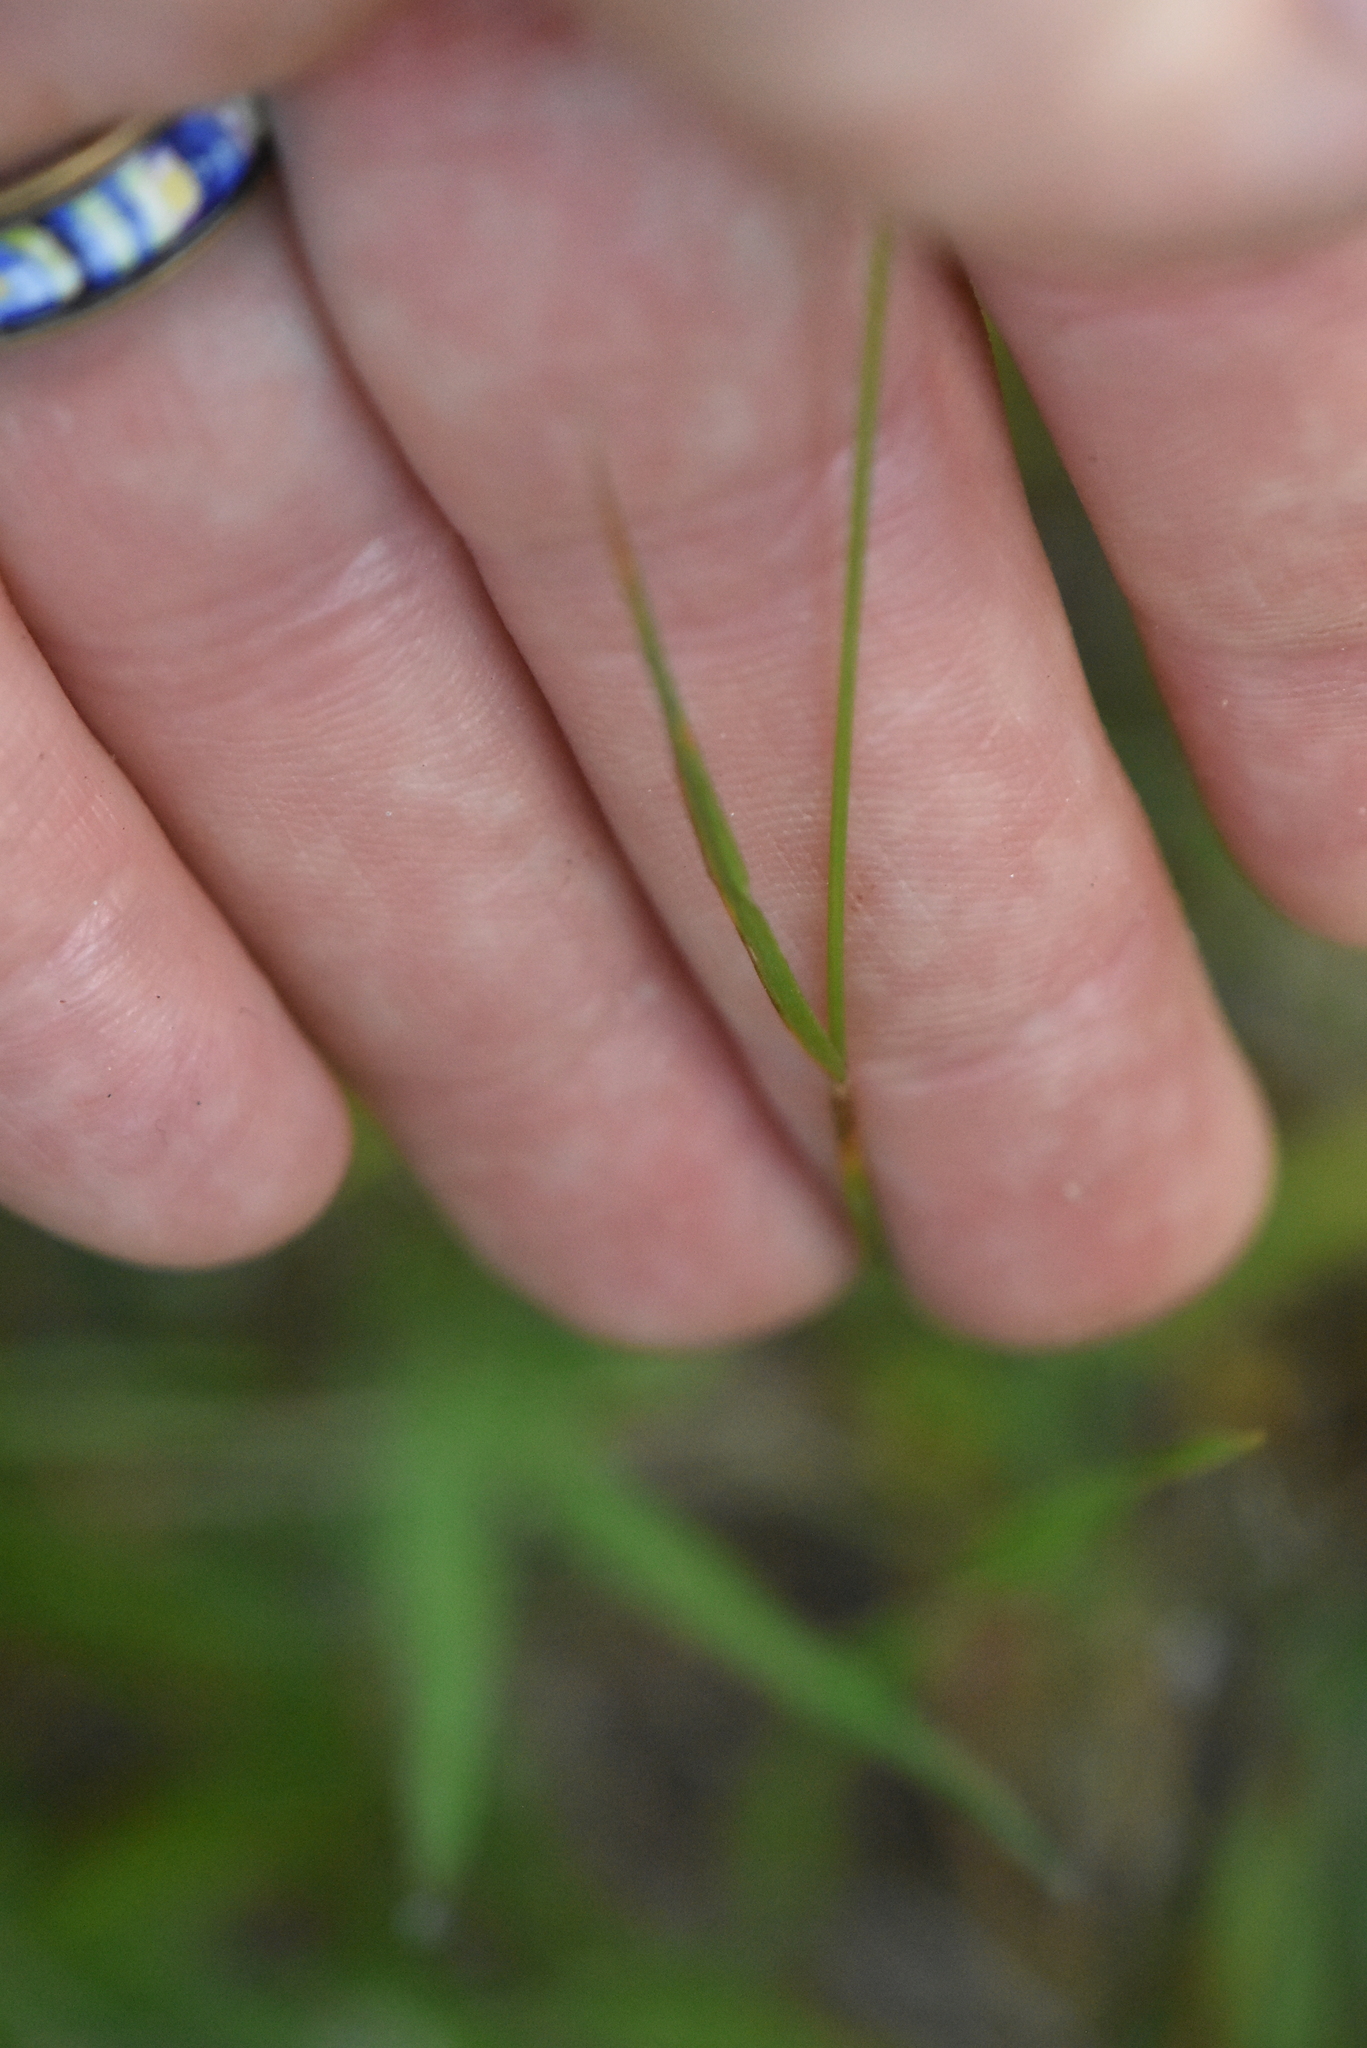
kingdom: Plantae
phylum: Tracheophyta
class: Liliopsida
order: Poales
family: Poaceae
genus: Agrostis
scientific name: Agrostis capillaris
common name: Colonial bentgrass
